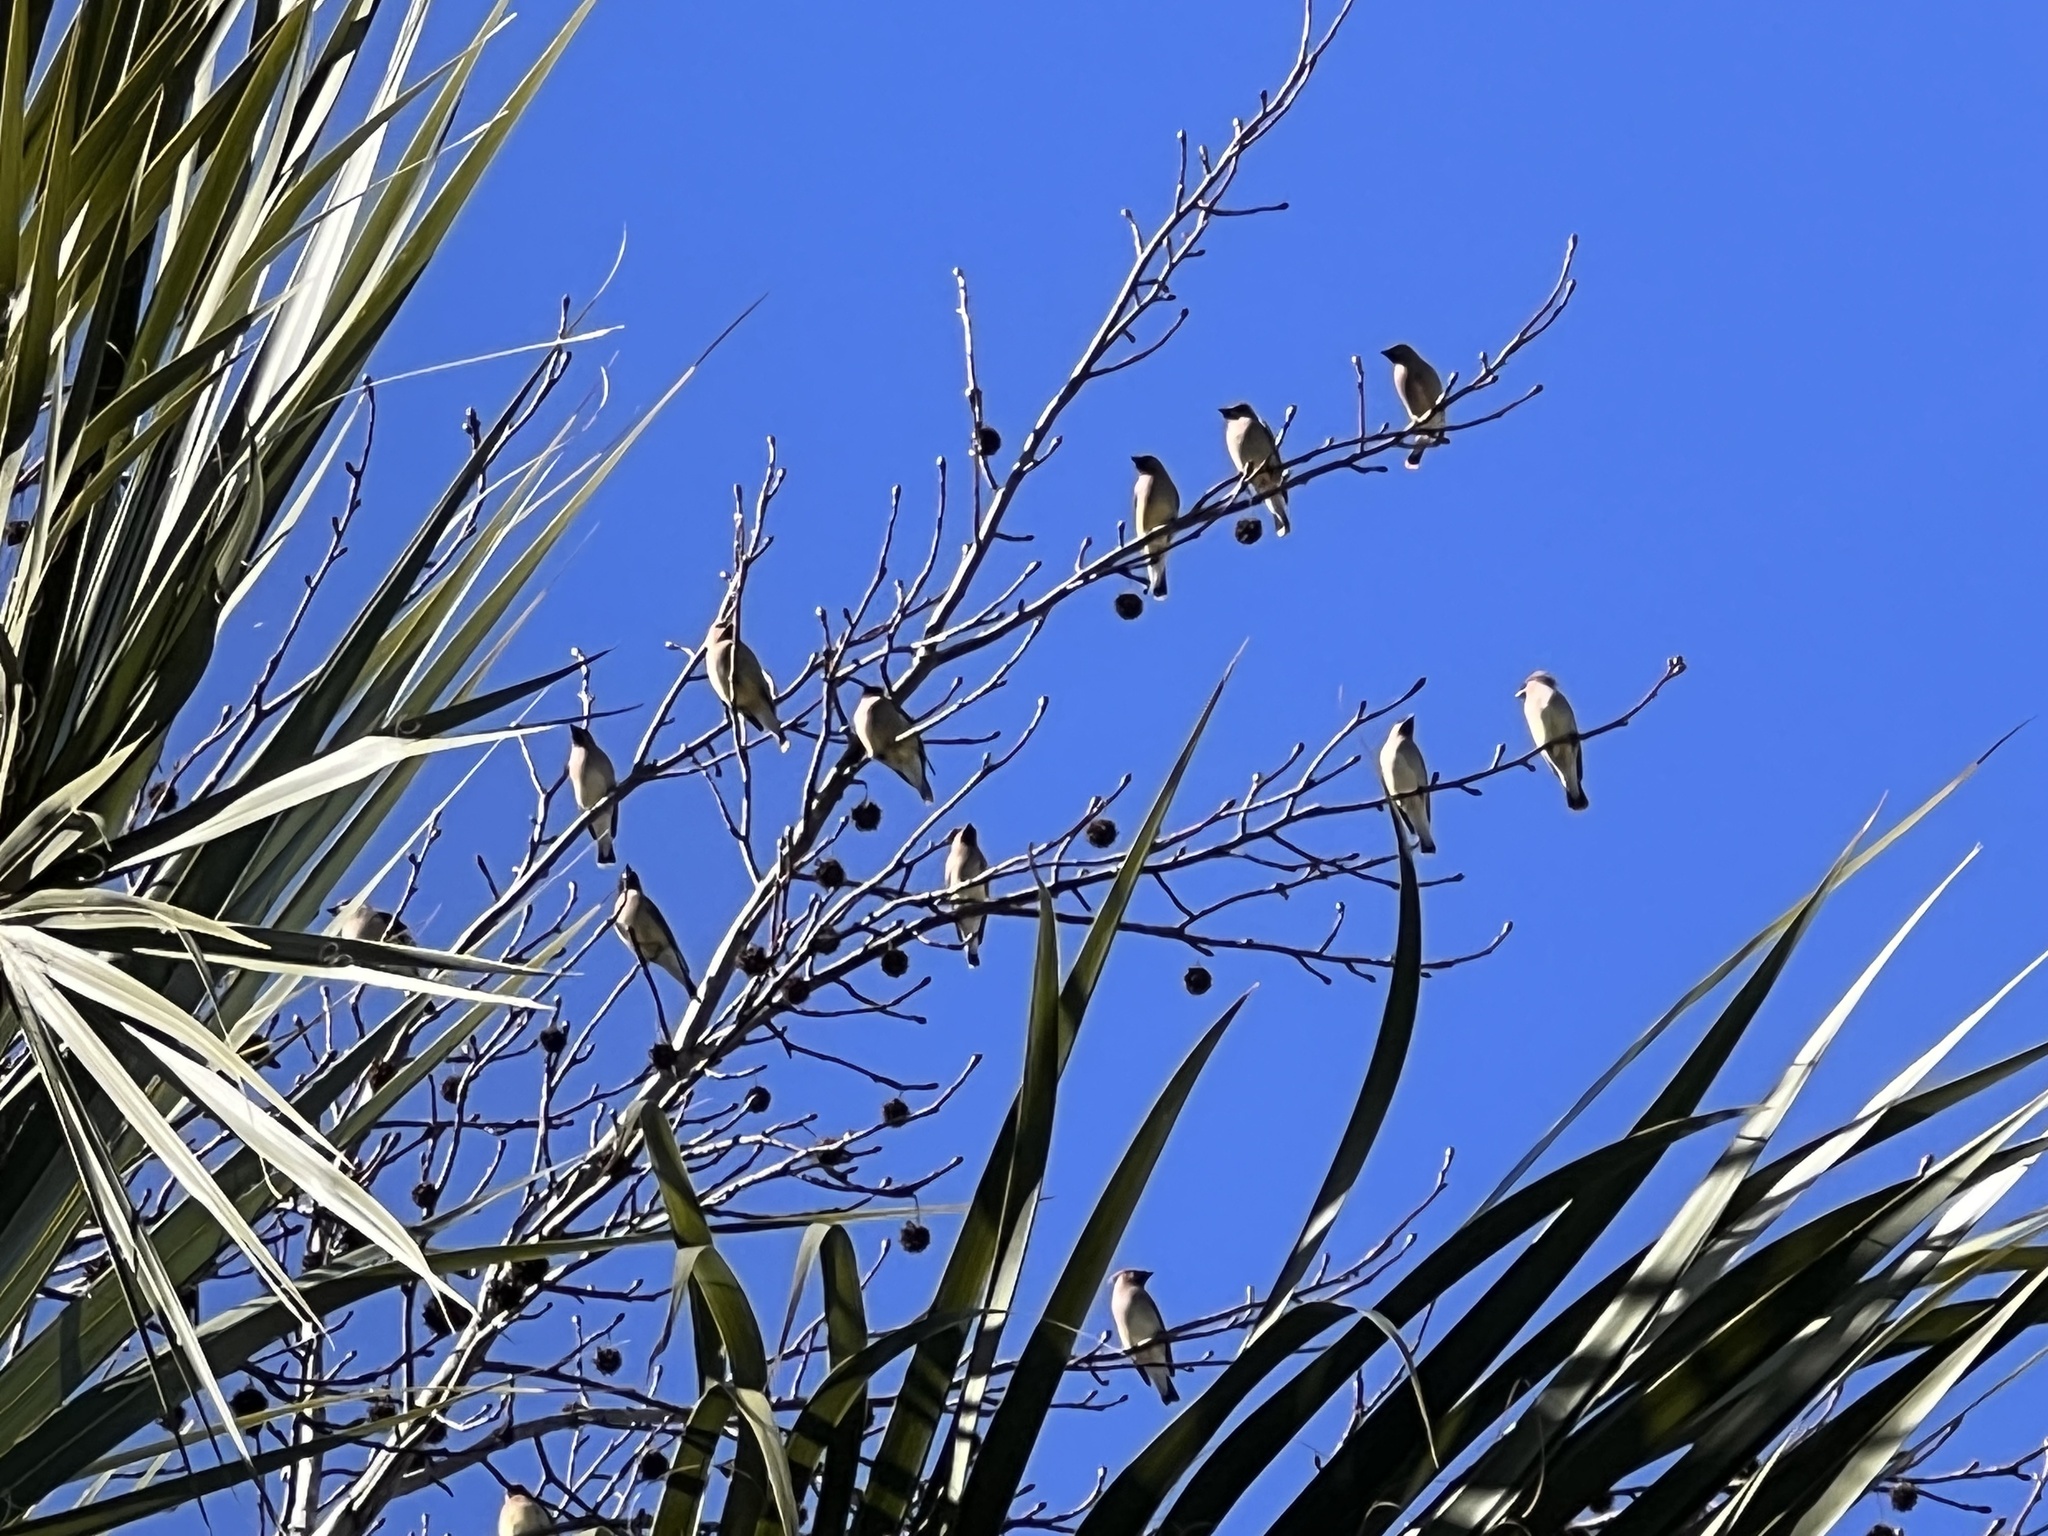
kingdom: Animalia
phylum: Chordata
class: Aves
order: Passeriformes
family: Bombycillidae
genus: Bombycilla
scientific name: Bombycilla cedrorum
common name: Cedar waxwing
